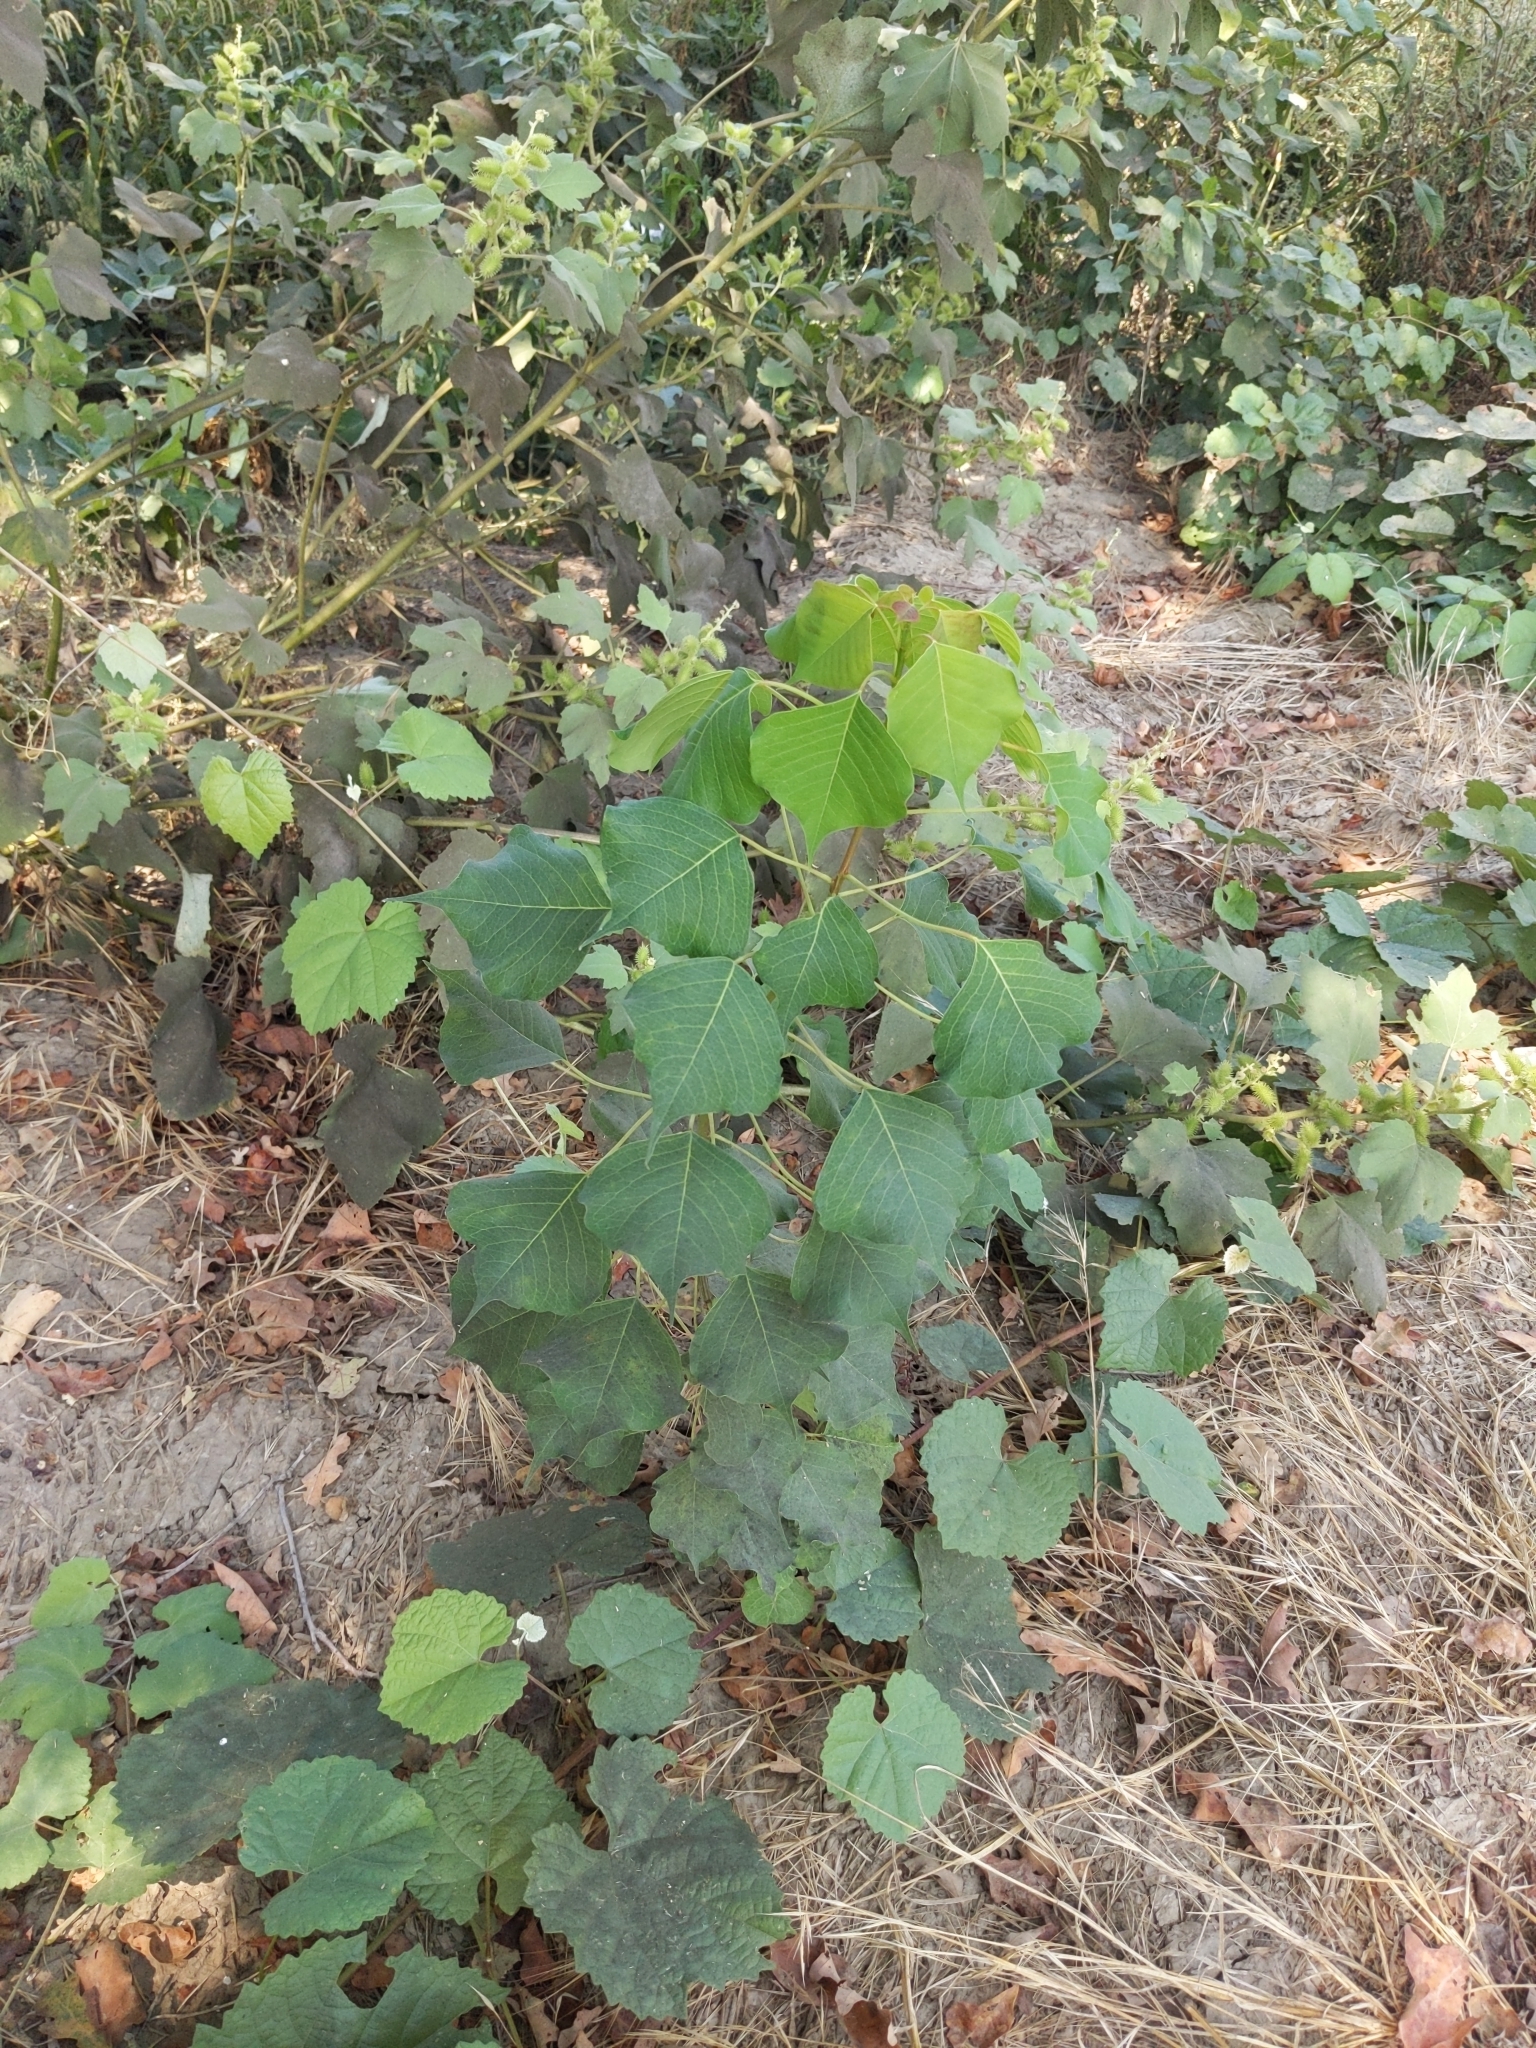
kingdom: Plantae
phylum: Tracheophyta
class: Magnoliopsida
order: Malpighiales
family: Euphorbiaceae
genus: Triadica
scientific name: Triadica sebifera
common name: Chinese tallow
